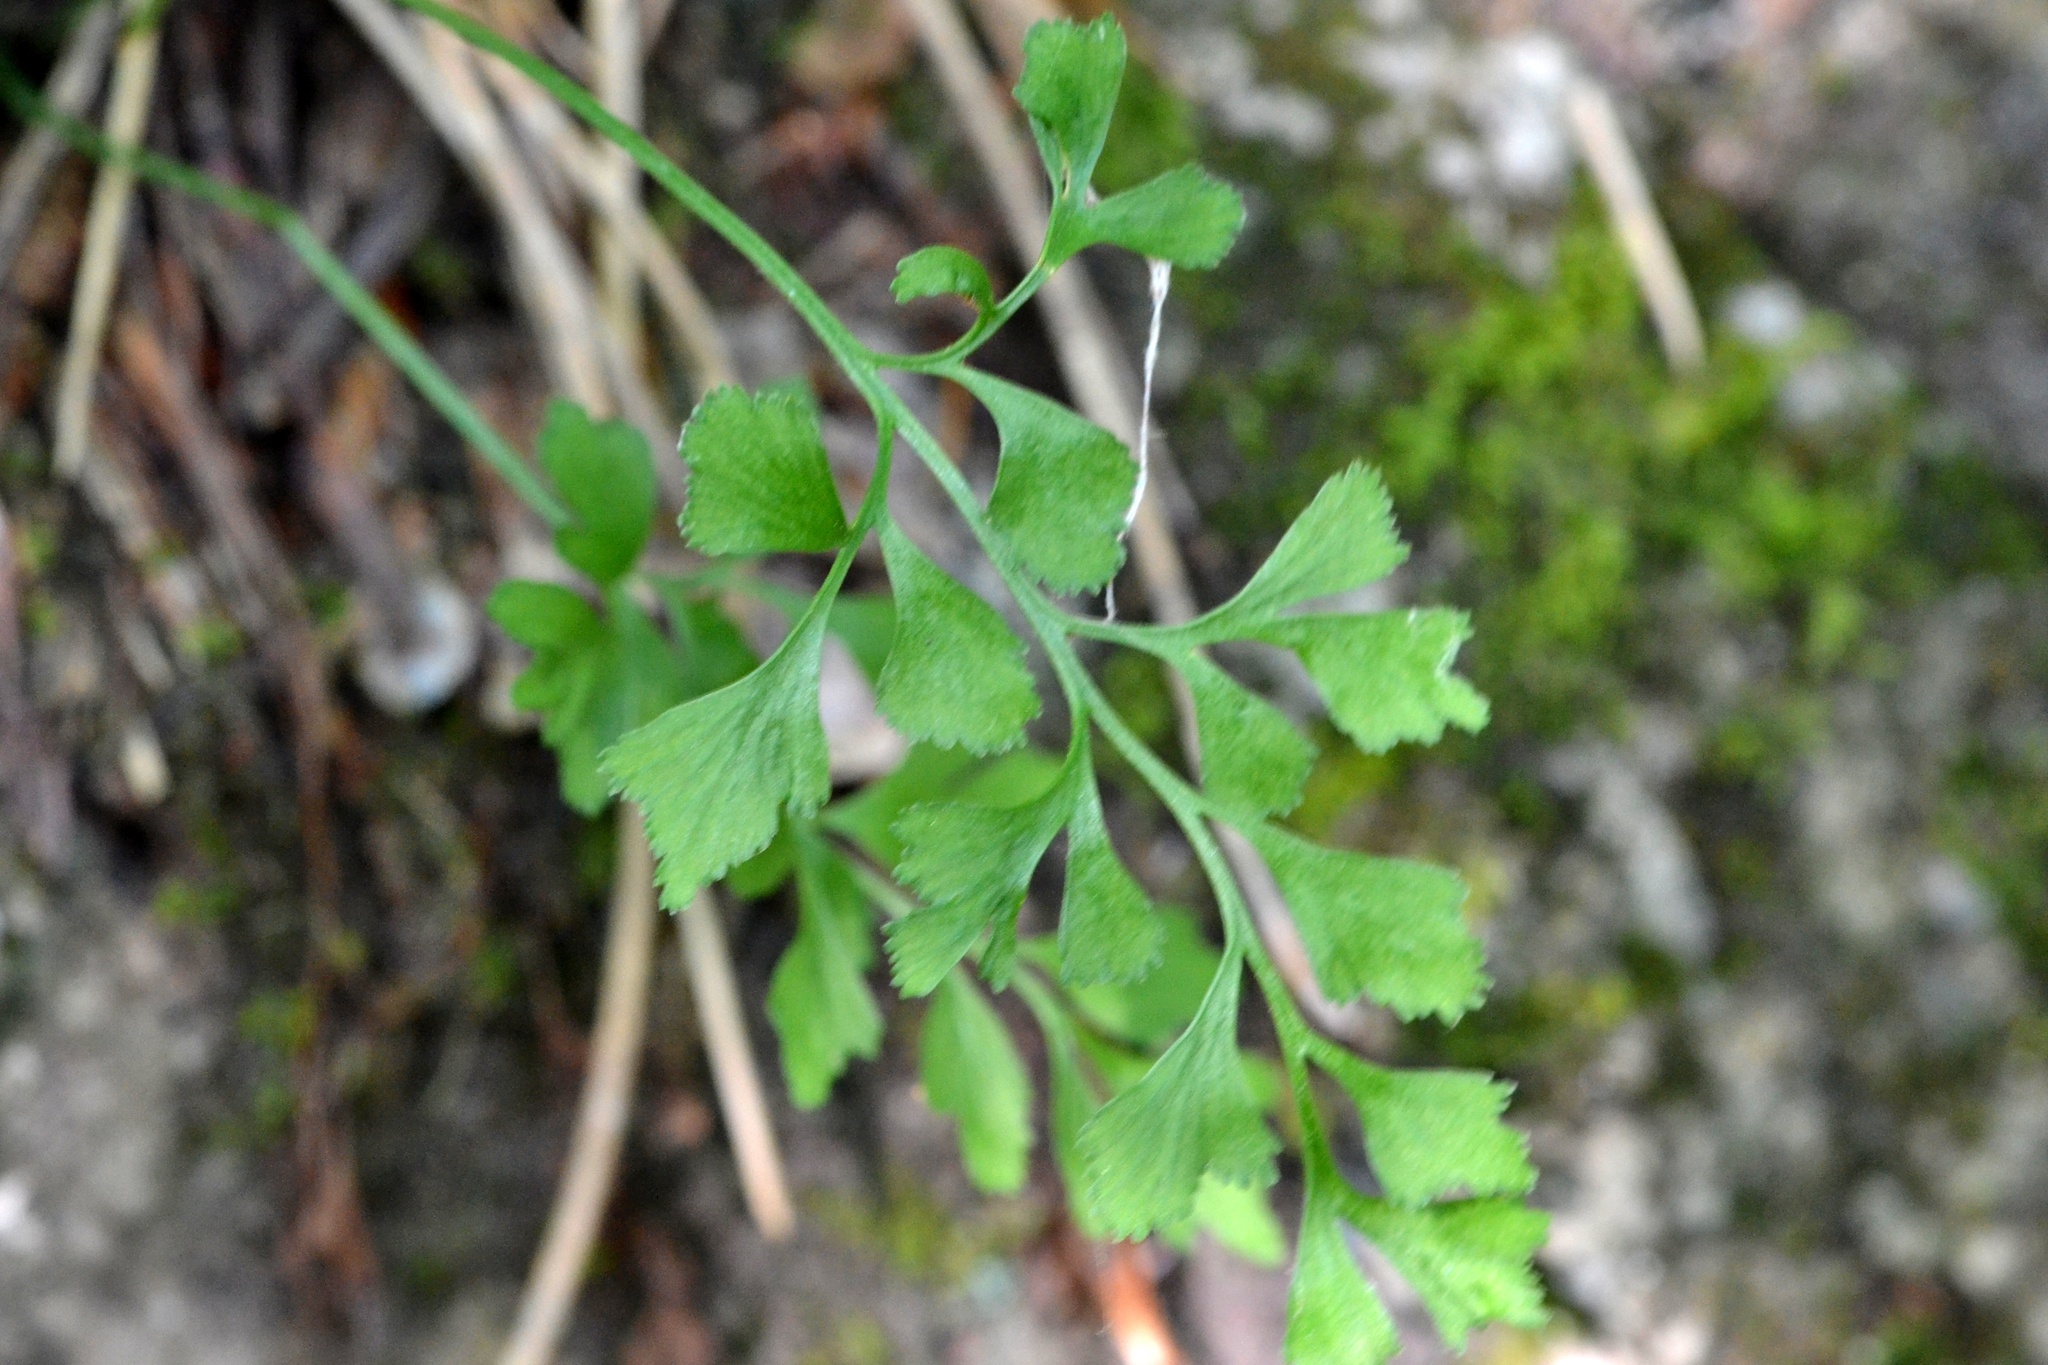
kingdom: Plantae
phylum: Tracheophyta
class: Polypodiopsida
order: Polypodiales
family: Aspleniaceae
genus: Asplenium
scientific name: Asplenium ruta-muraria
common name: Wall-rue
